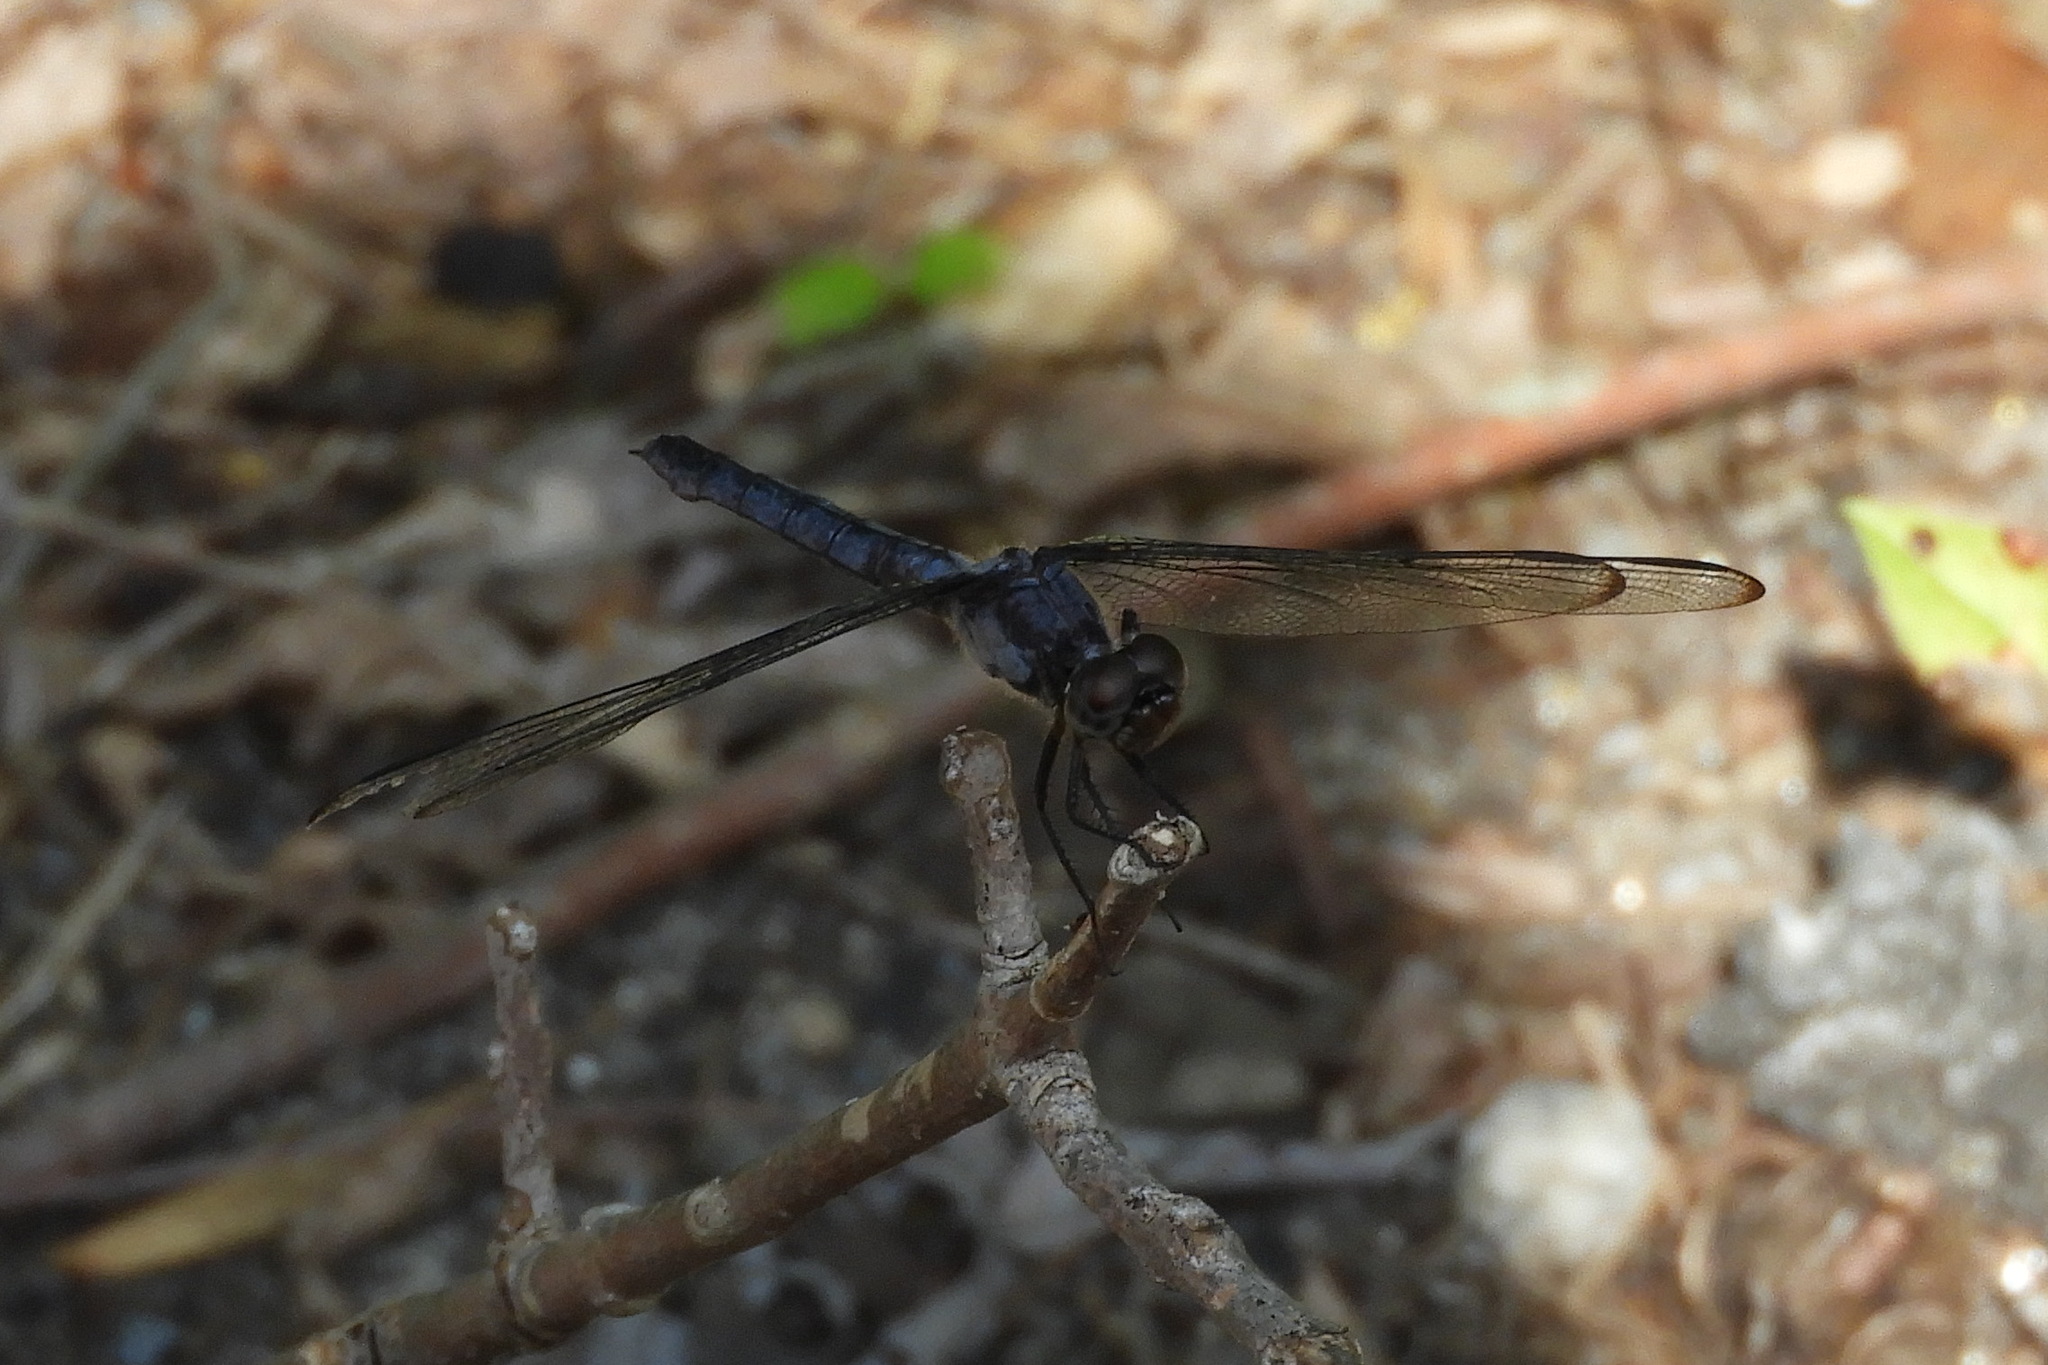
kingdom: Animalia
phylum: Arthropoda
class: Insecta
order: Odonata
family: Libellulidae
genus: Libellula
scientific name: Libellula incesta
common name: Slaty skimmer
